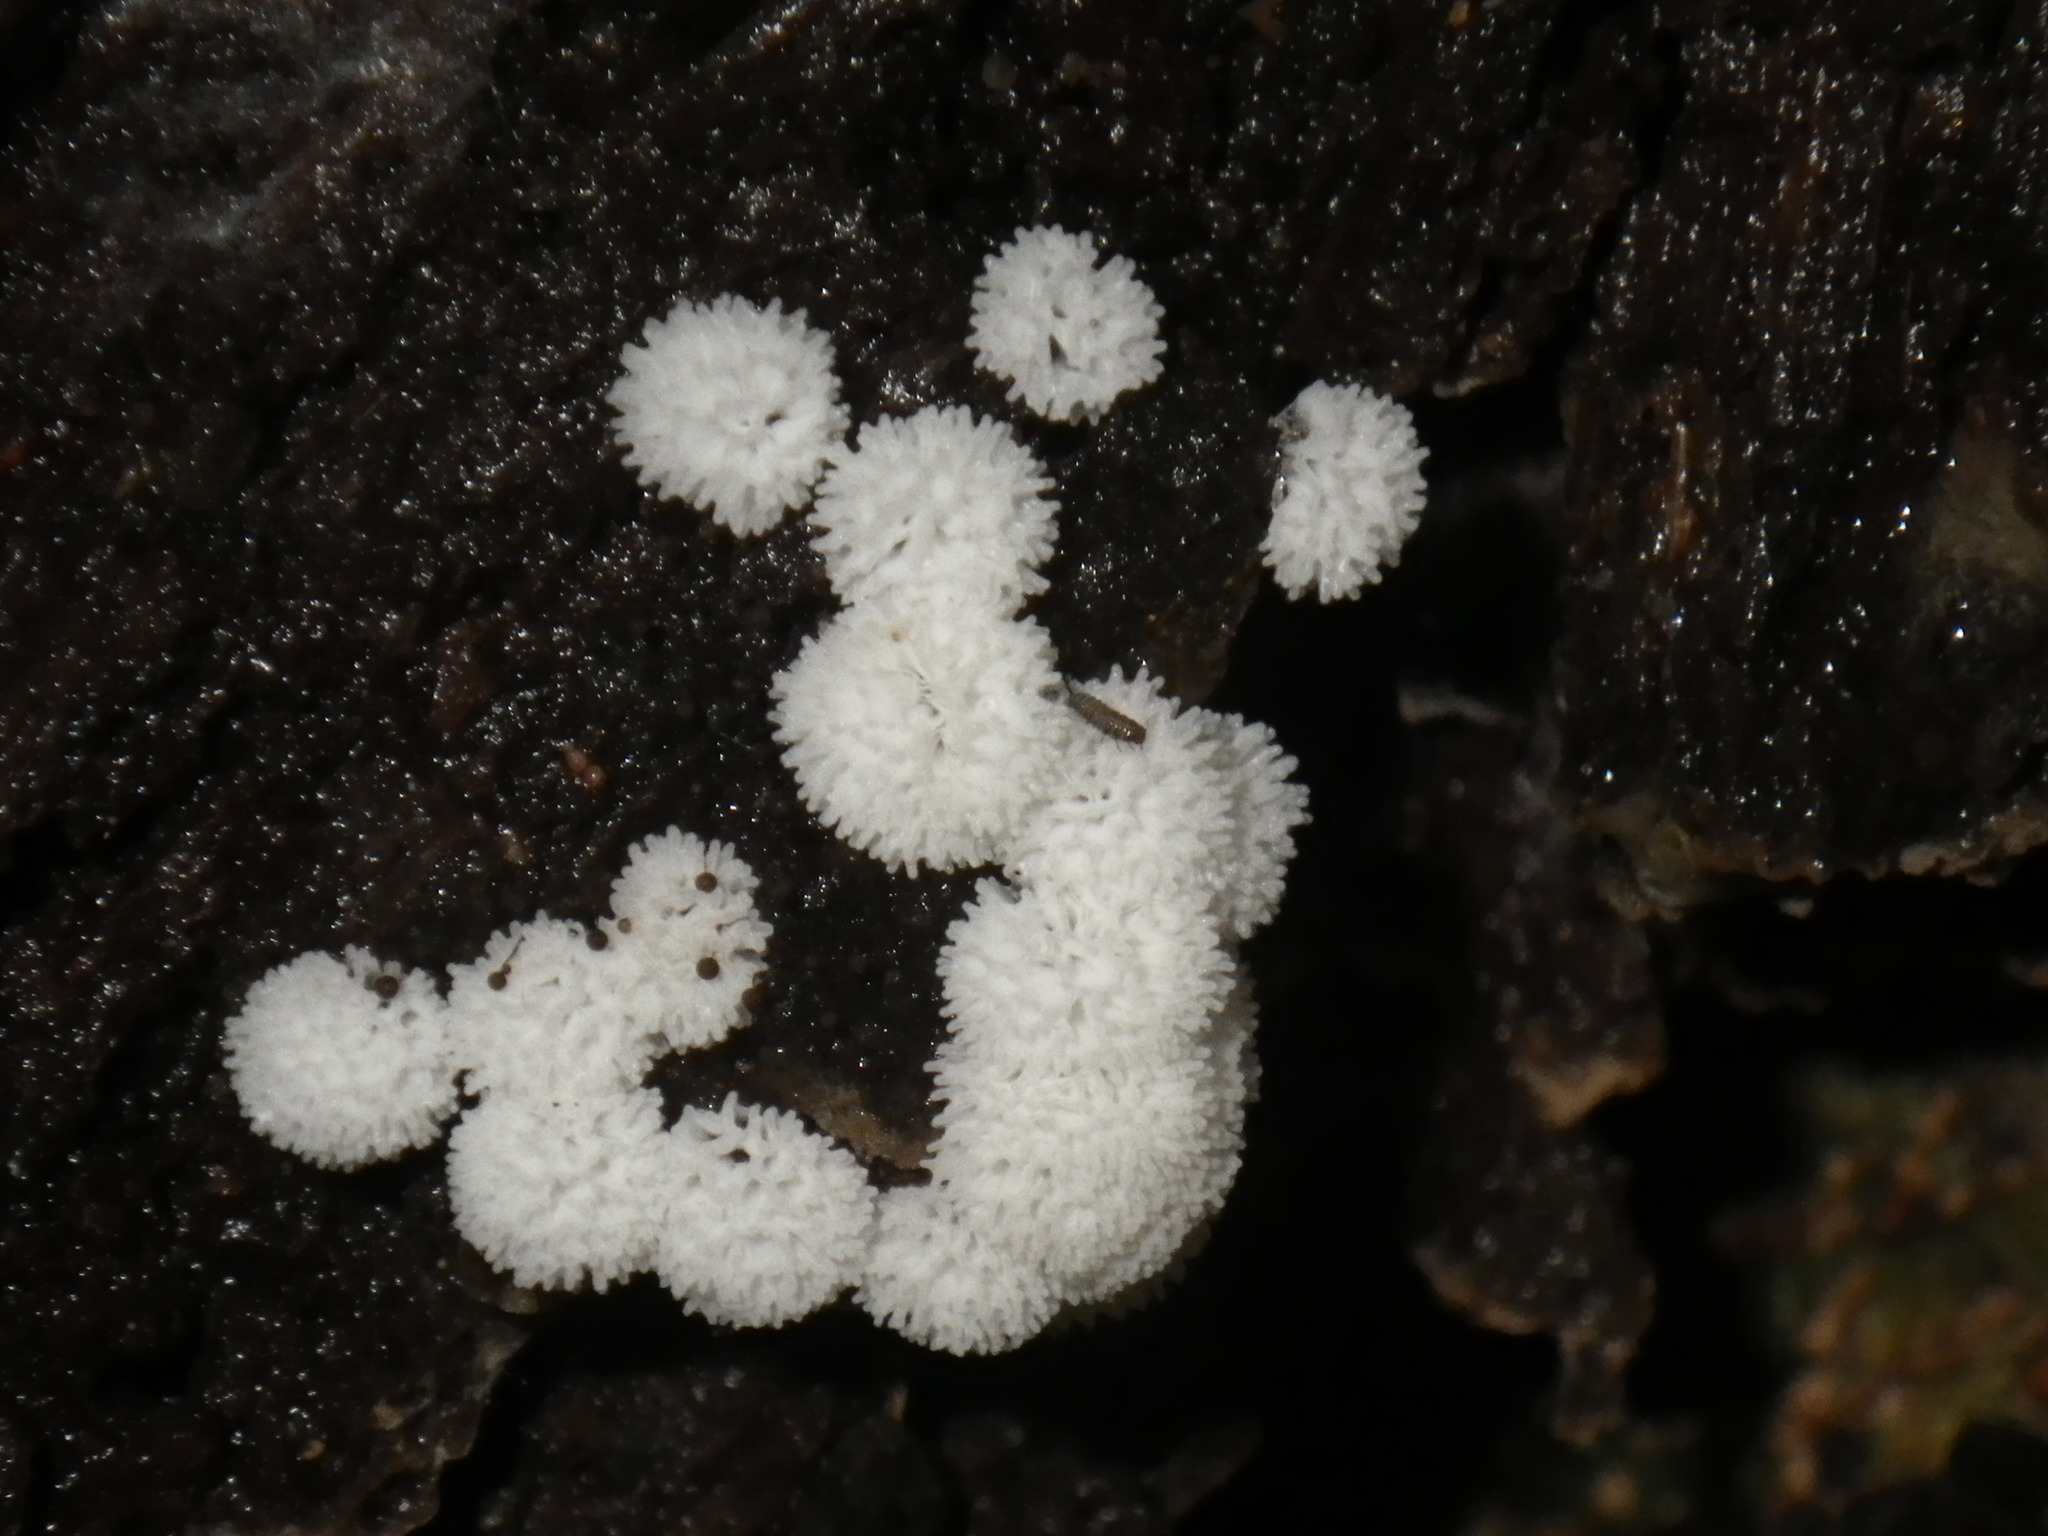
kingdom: Protozoa
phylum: Mycetozoa
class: Protosteliomycetes
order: Ceratiomyxales
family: Ceratiomyxaceae
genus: Ceratiomyxa
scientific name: Ceratiomyxa fruticulosa
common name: Honeycomb coral slime mold
